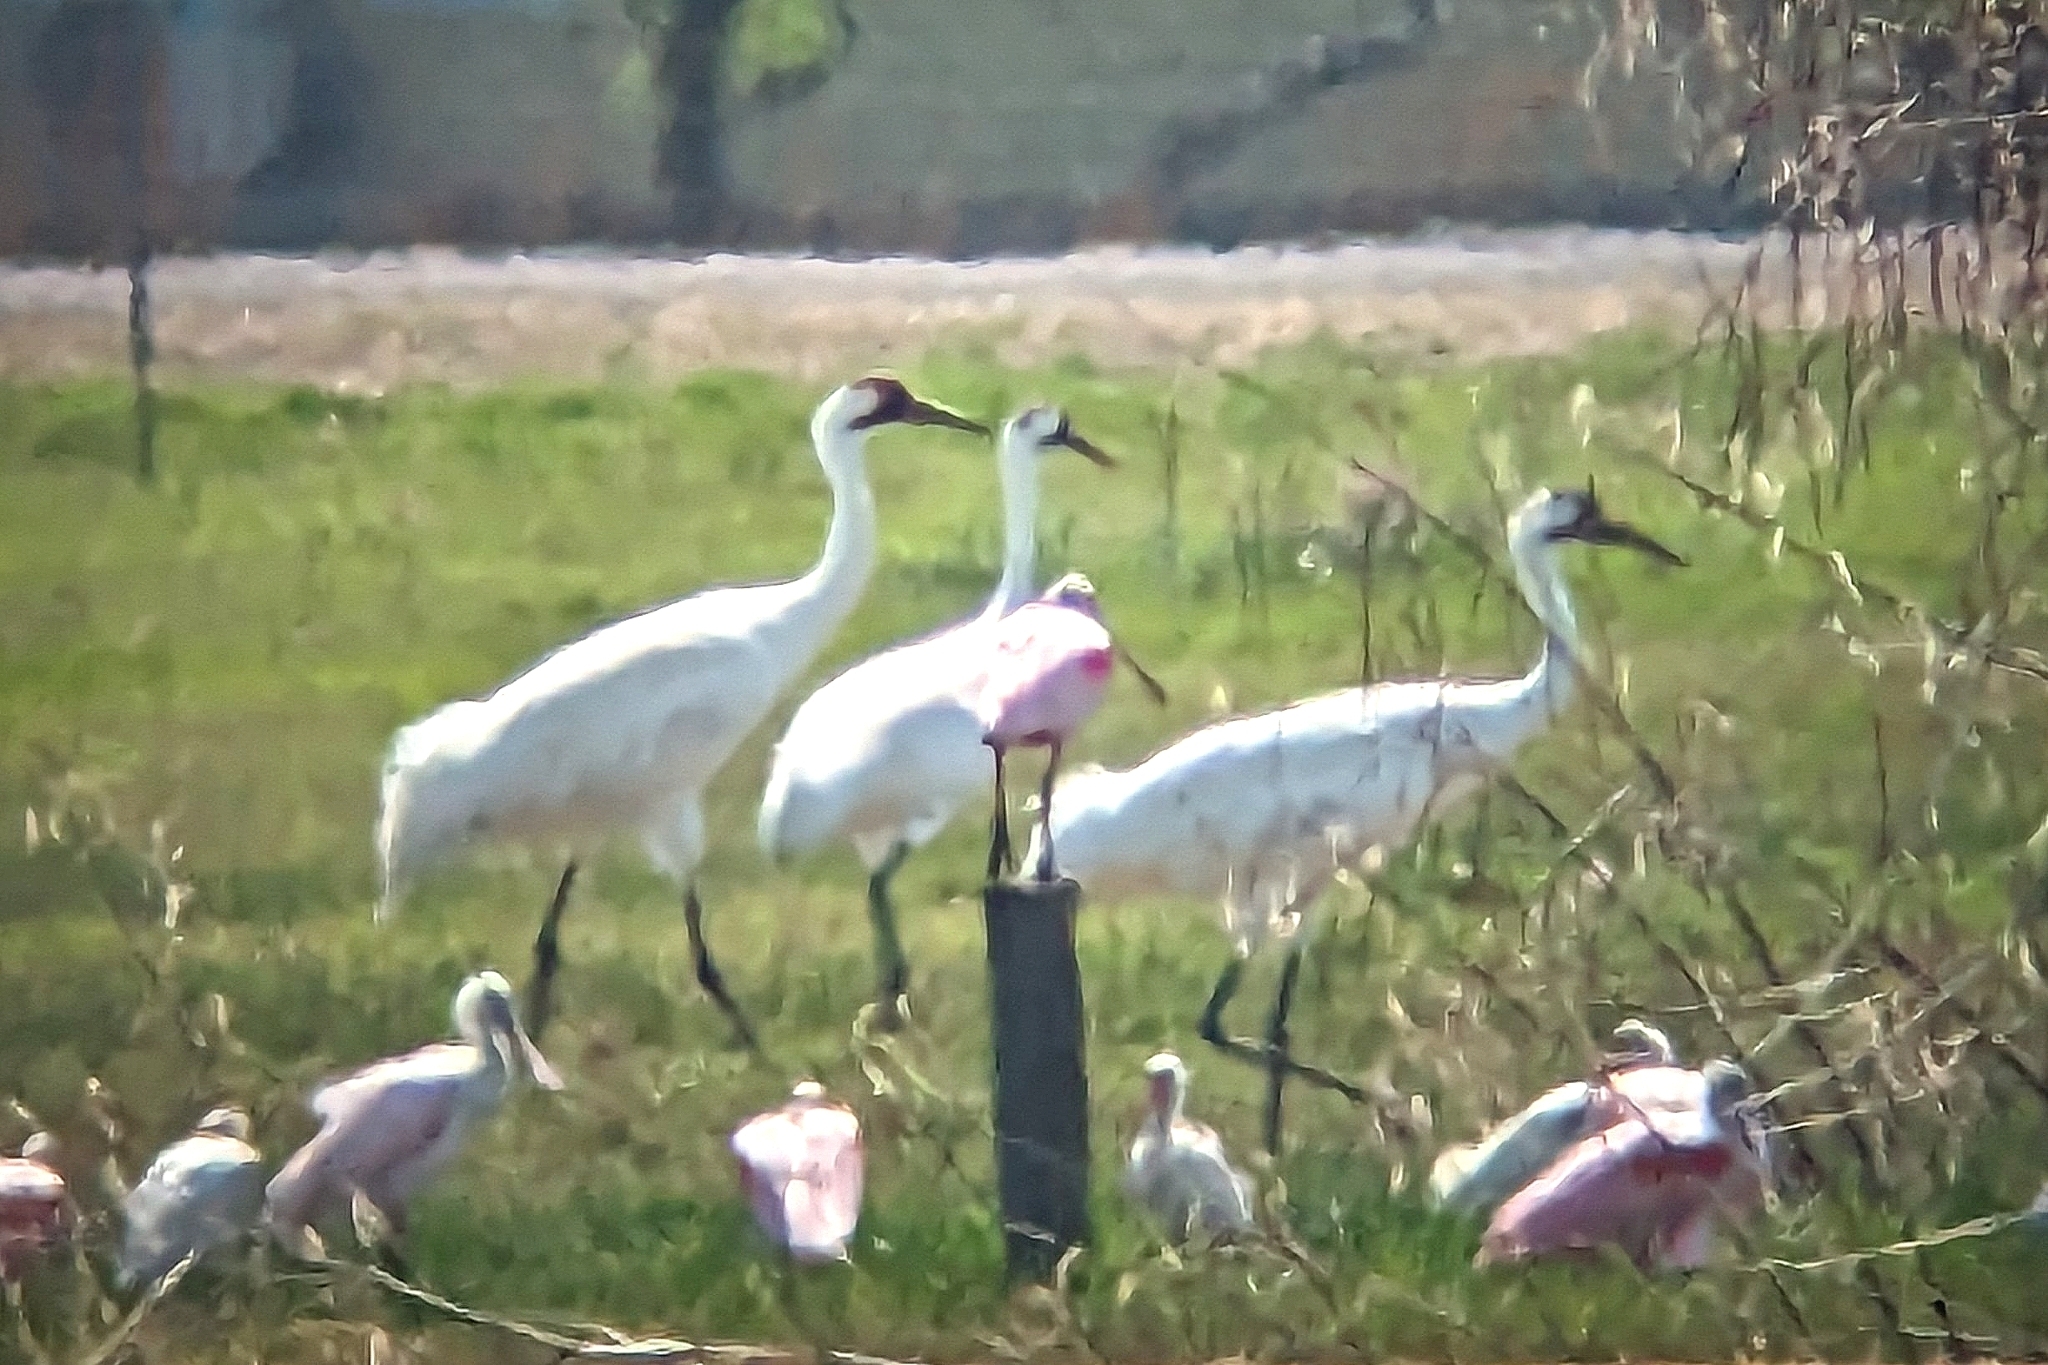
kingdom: Animalia
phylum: Chordata
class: Aves
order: Gruiformes
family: Gruidae
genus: Grus
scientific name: Grus americana
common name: Whooping crane
